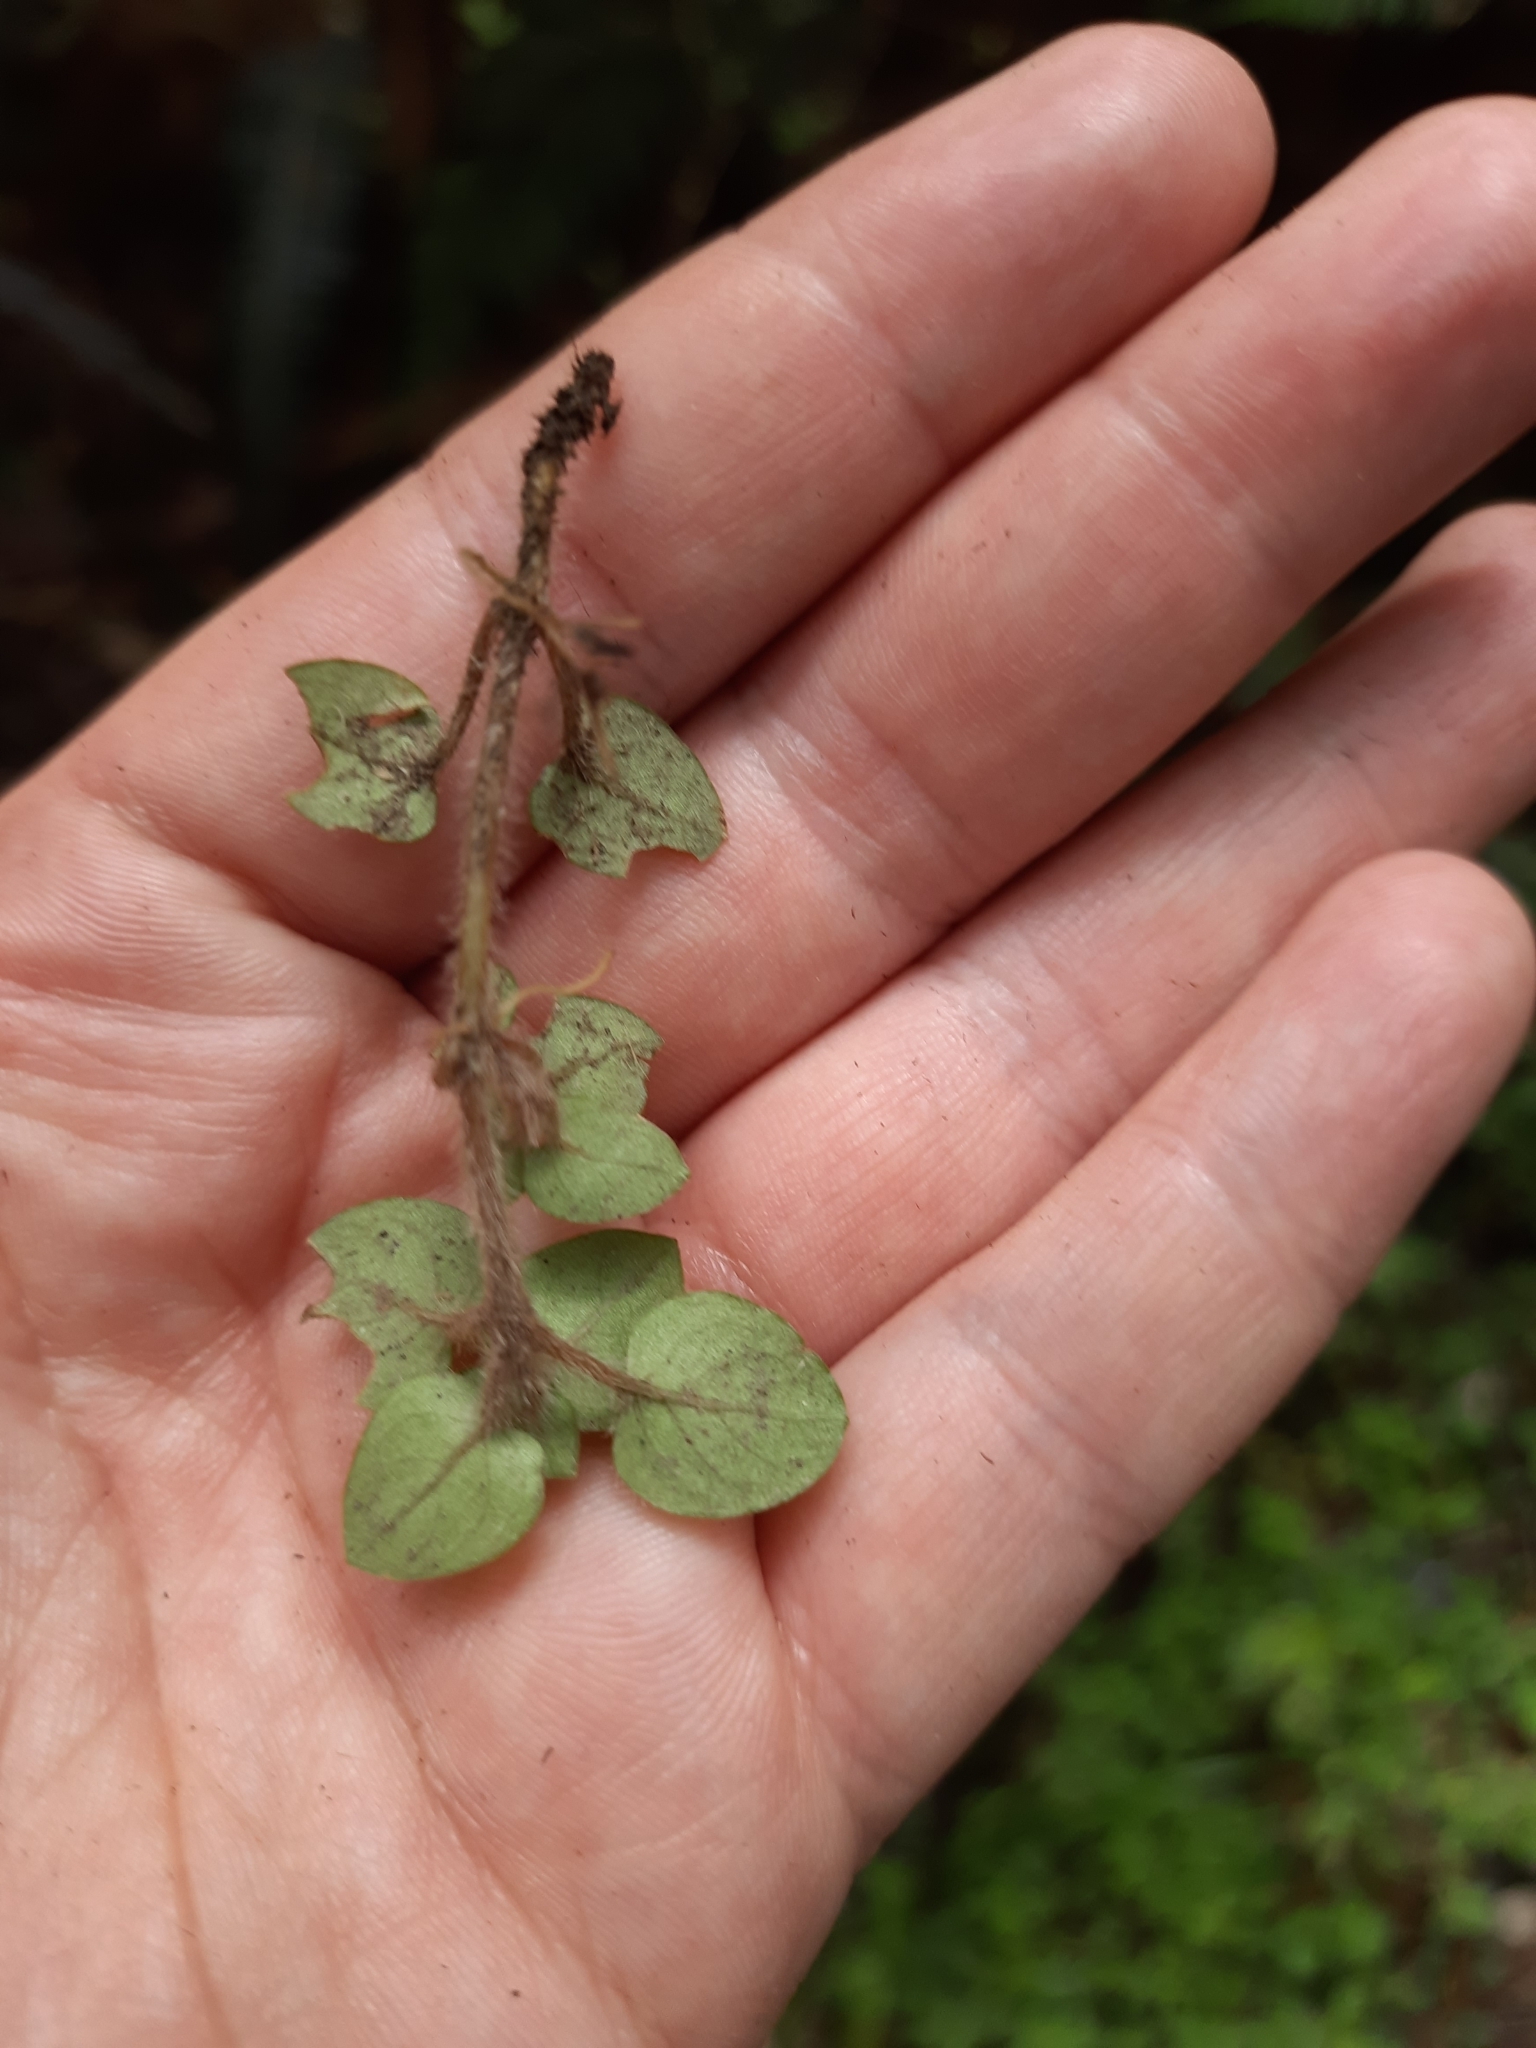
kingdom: Plantae
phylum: Tracheophyta
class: Magnoliopsida
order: Gentianales
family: Rubiaceae
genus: Nertera
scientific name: Nertera villosa
